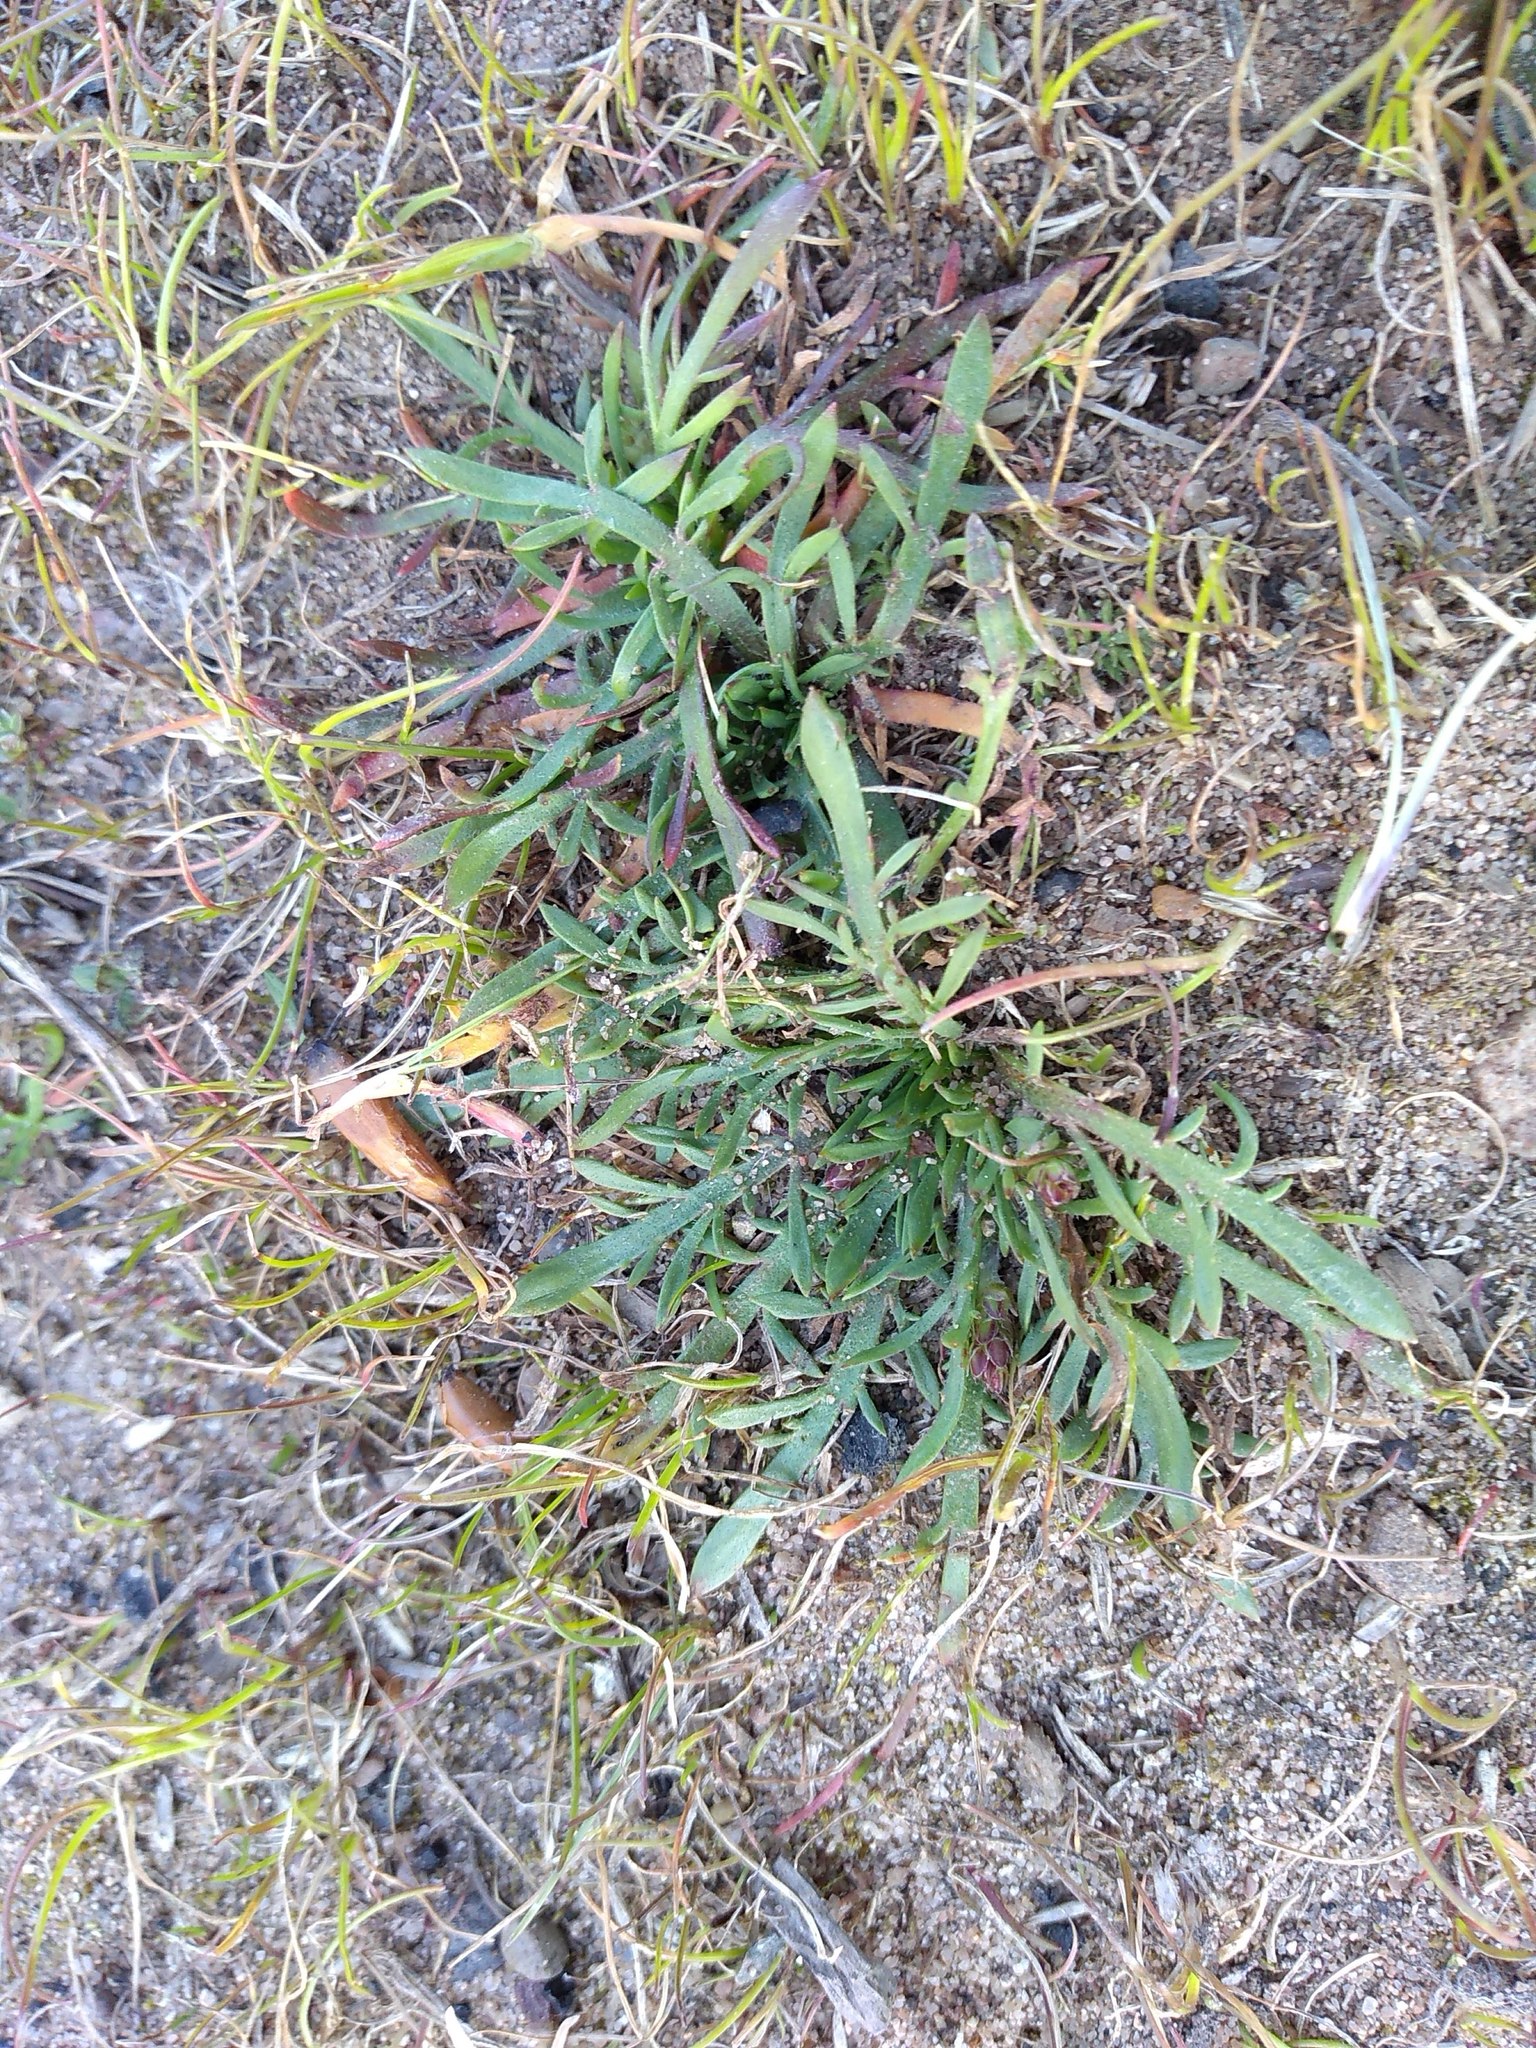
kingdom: Plantae
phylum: Tracheophyta
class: Magnoliopsida
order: Lamiales
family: Plantaginaceae
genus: Plantago
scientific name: Plantago coronopus
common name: Buck's-horn plantain
